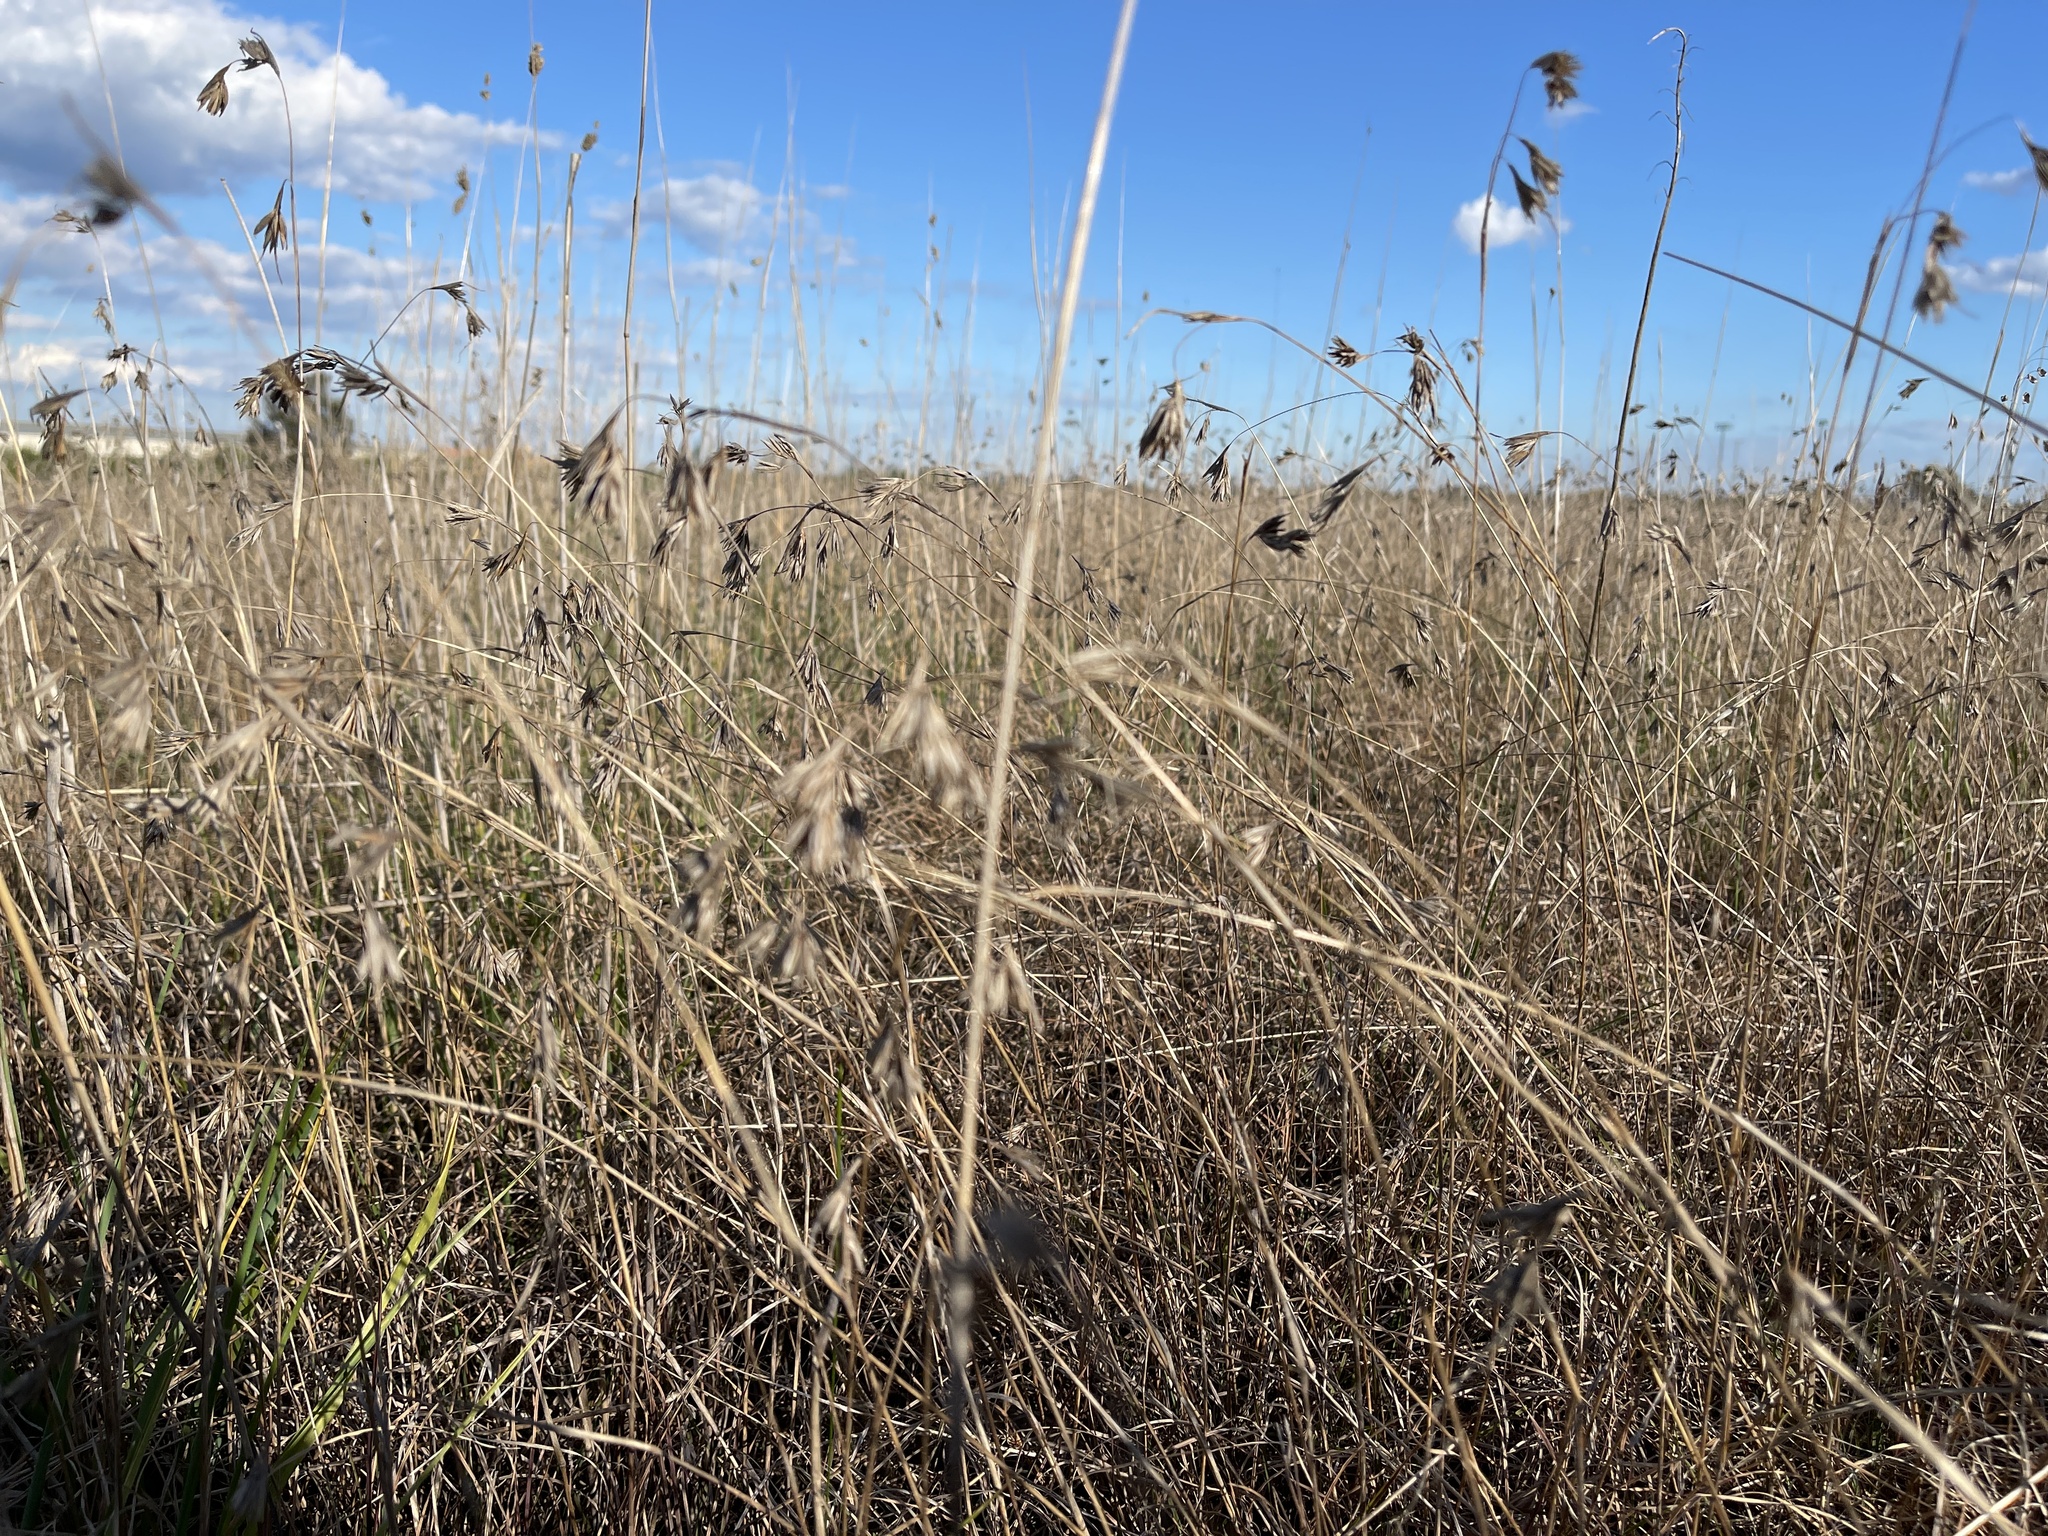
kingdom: Plantae
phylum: Tracheophyta
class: Liliopsida
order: Poales
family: Poaceae
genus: Themeda
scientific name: Themeda triandra
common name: Kangaroo grass
